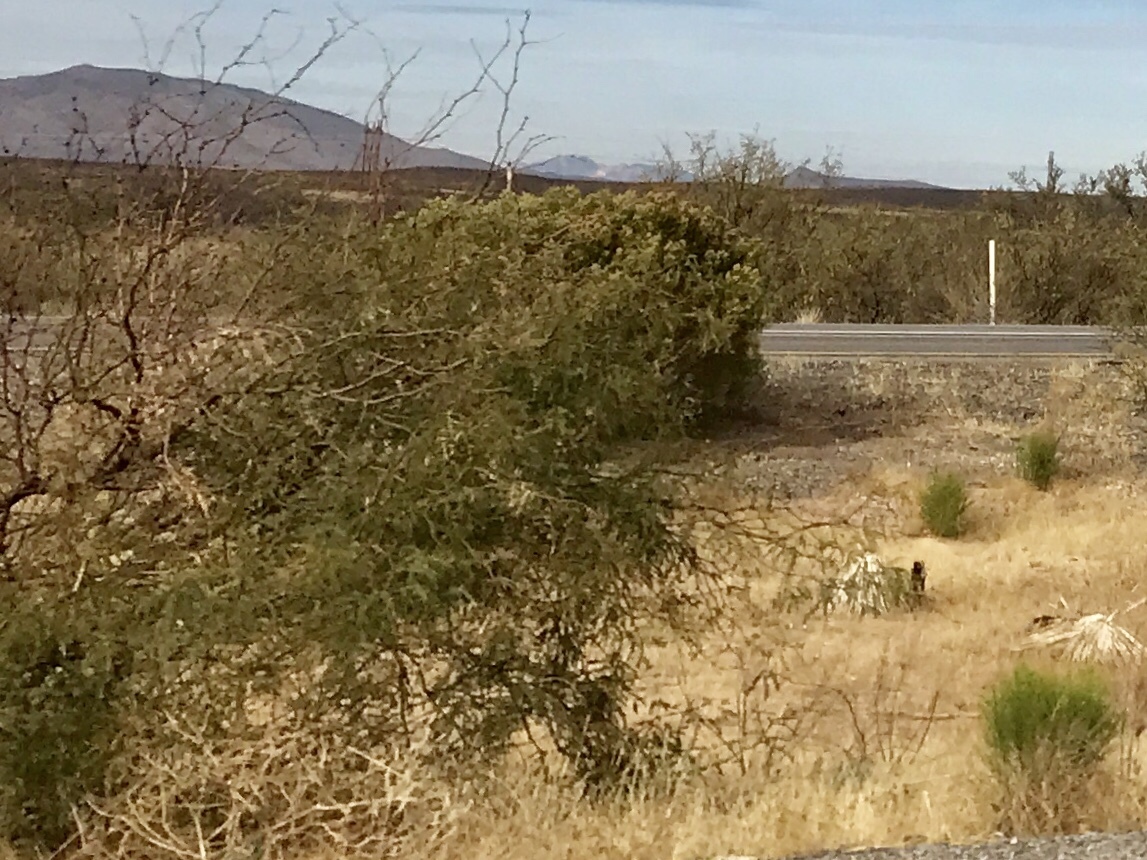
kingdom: Plantae
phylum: Tracheophyta
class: Magnoliopsida
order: Zygophyllales
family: Zygophyllaceae
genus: Larrea
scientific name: Larrea tridentata
